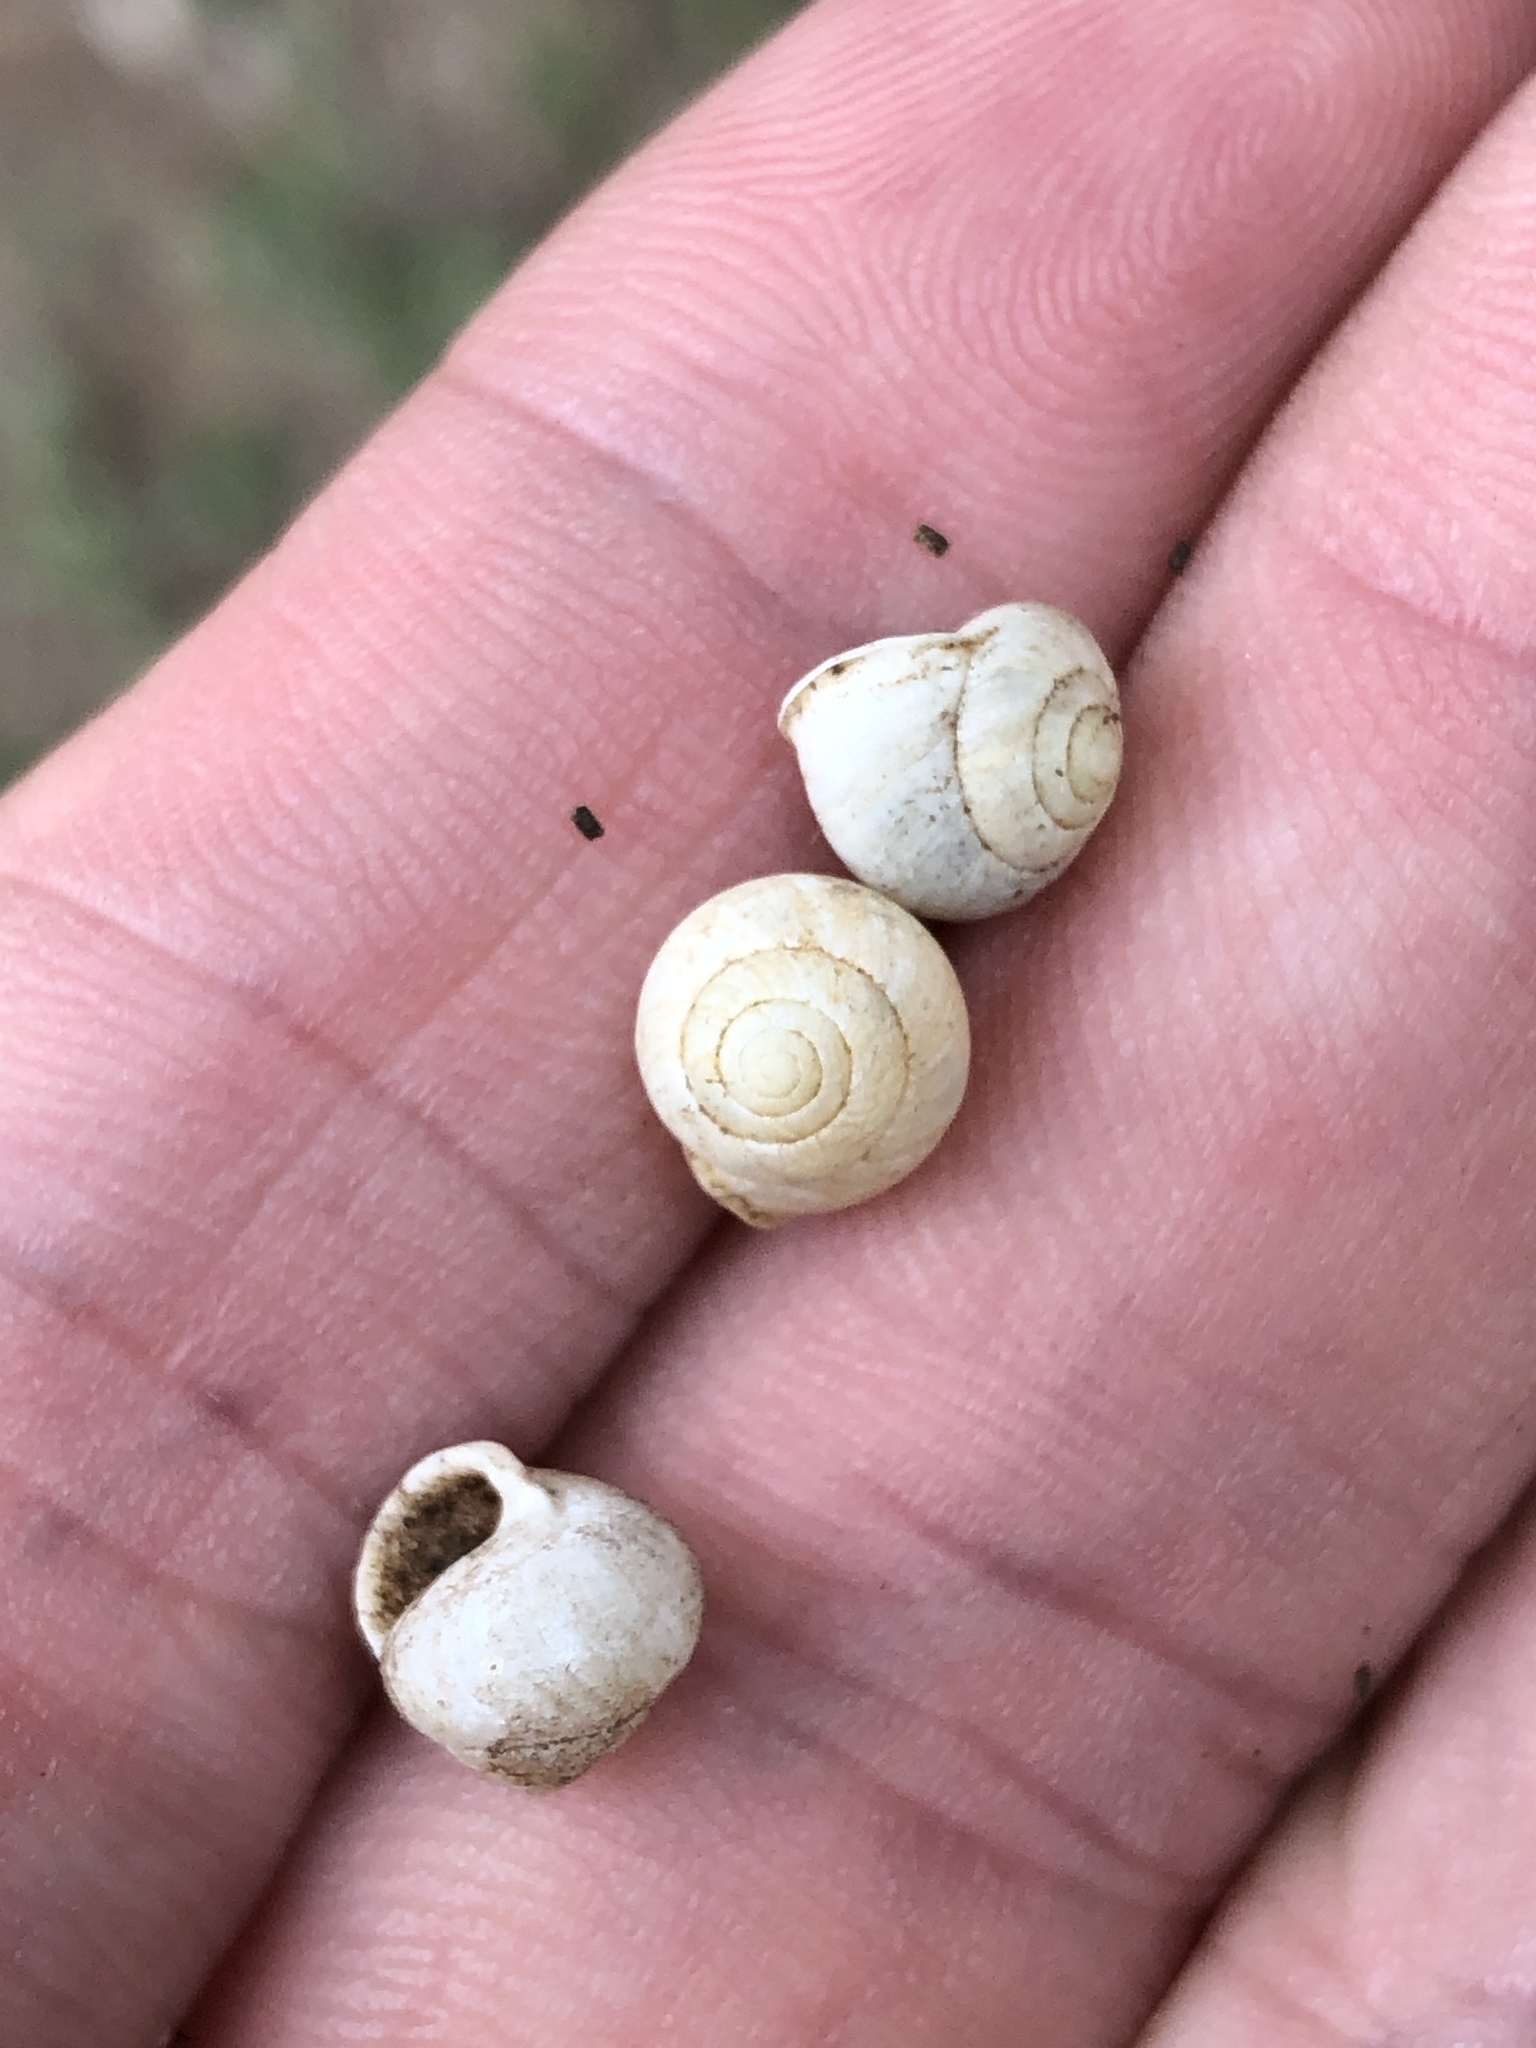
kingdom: Animalia
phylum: Mollusca
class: Gastropoda
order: Cycloneritida
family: Helicinidae
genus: Helicina
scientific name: Helicina orbiculata
